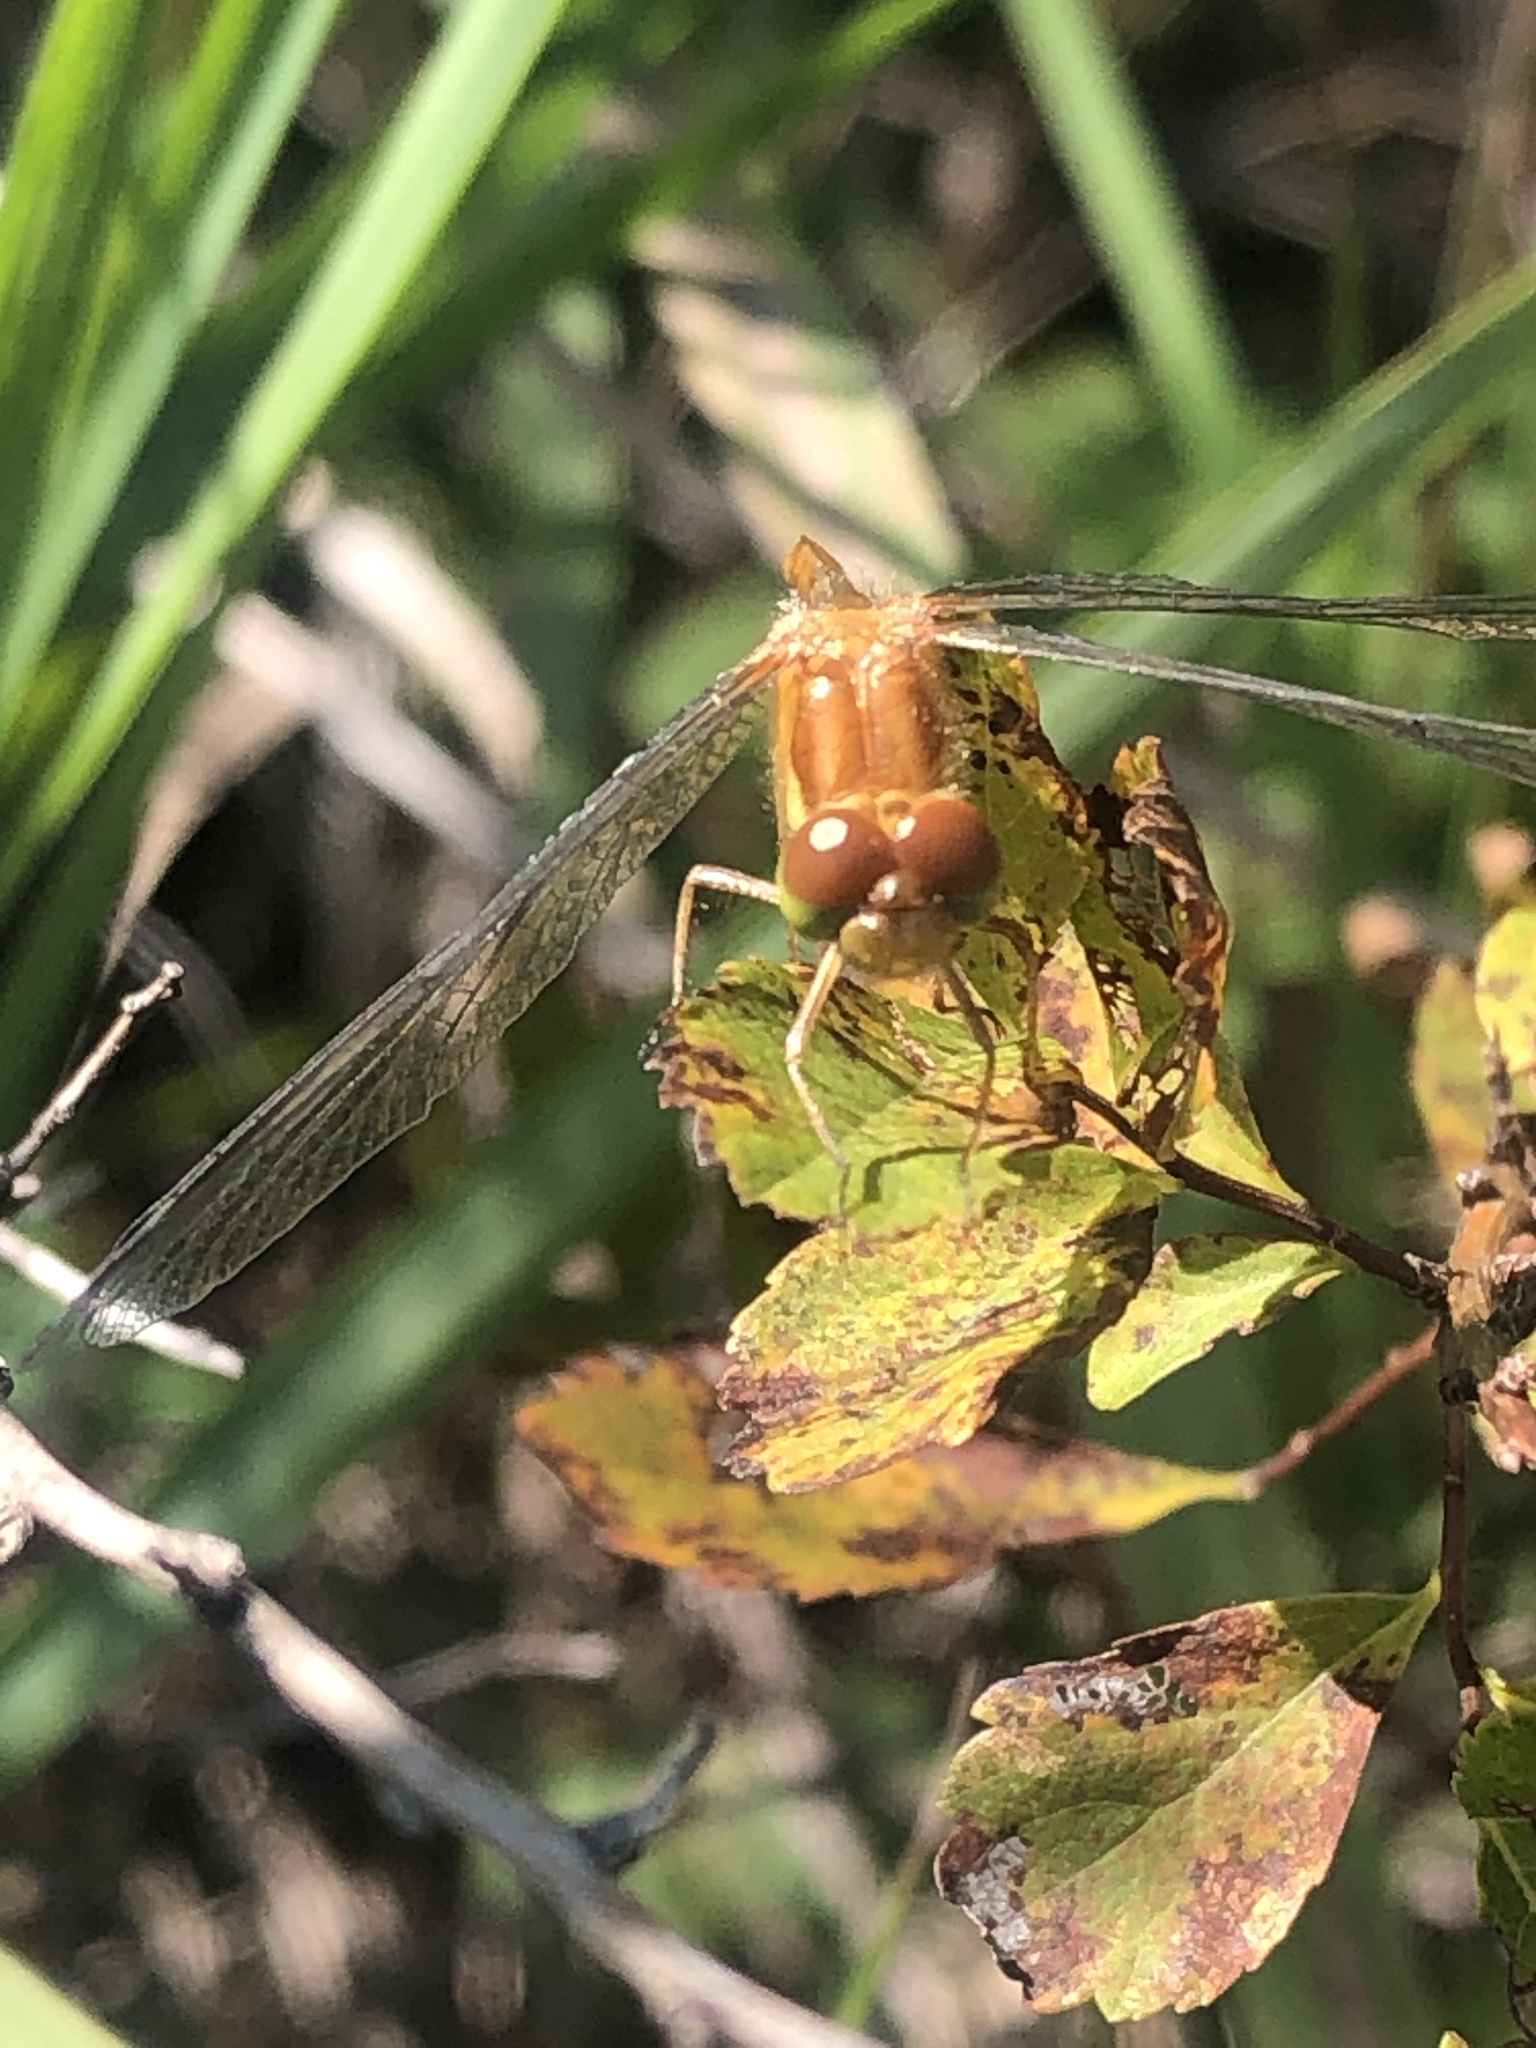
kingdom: Animalia
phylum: Arthropoda
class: Insecta
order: Odonata
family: Libellulidae
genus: Sympetrum
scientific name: Sympetrum vicinum
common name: Autumn meadowhawk
